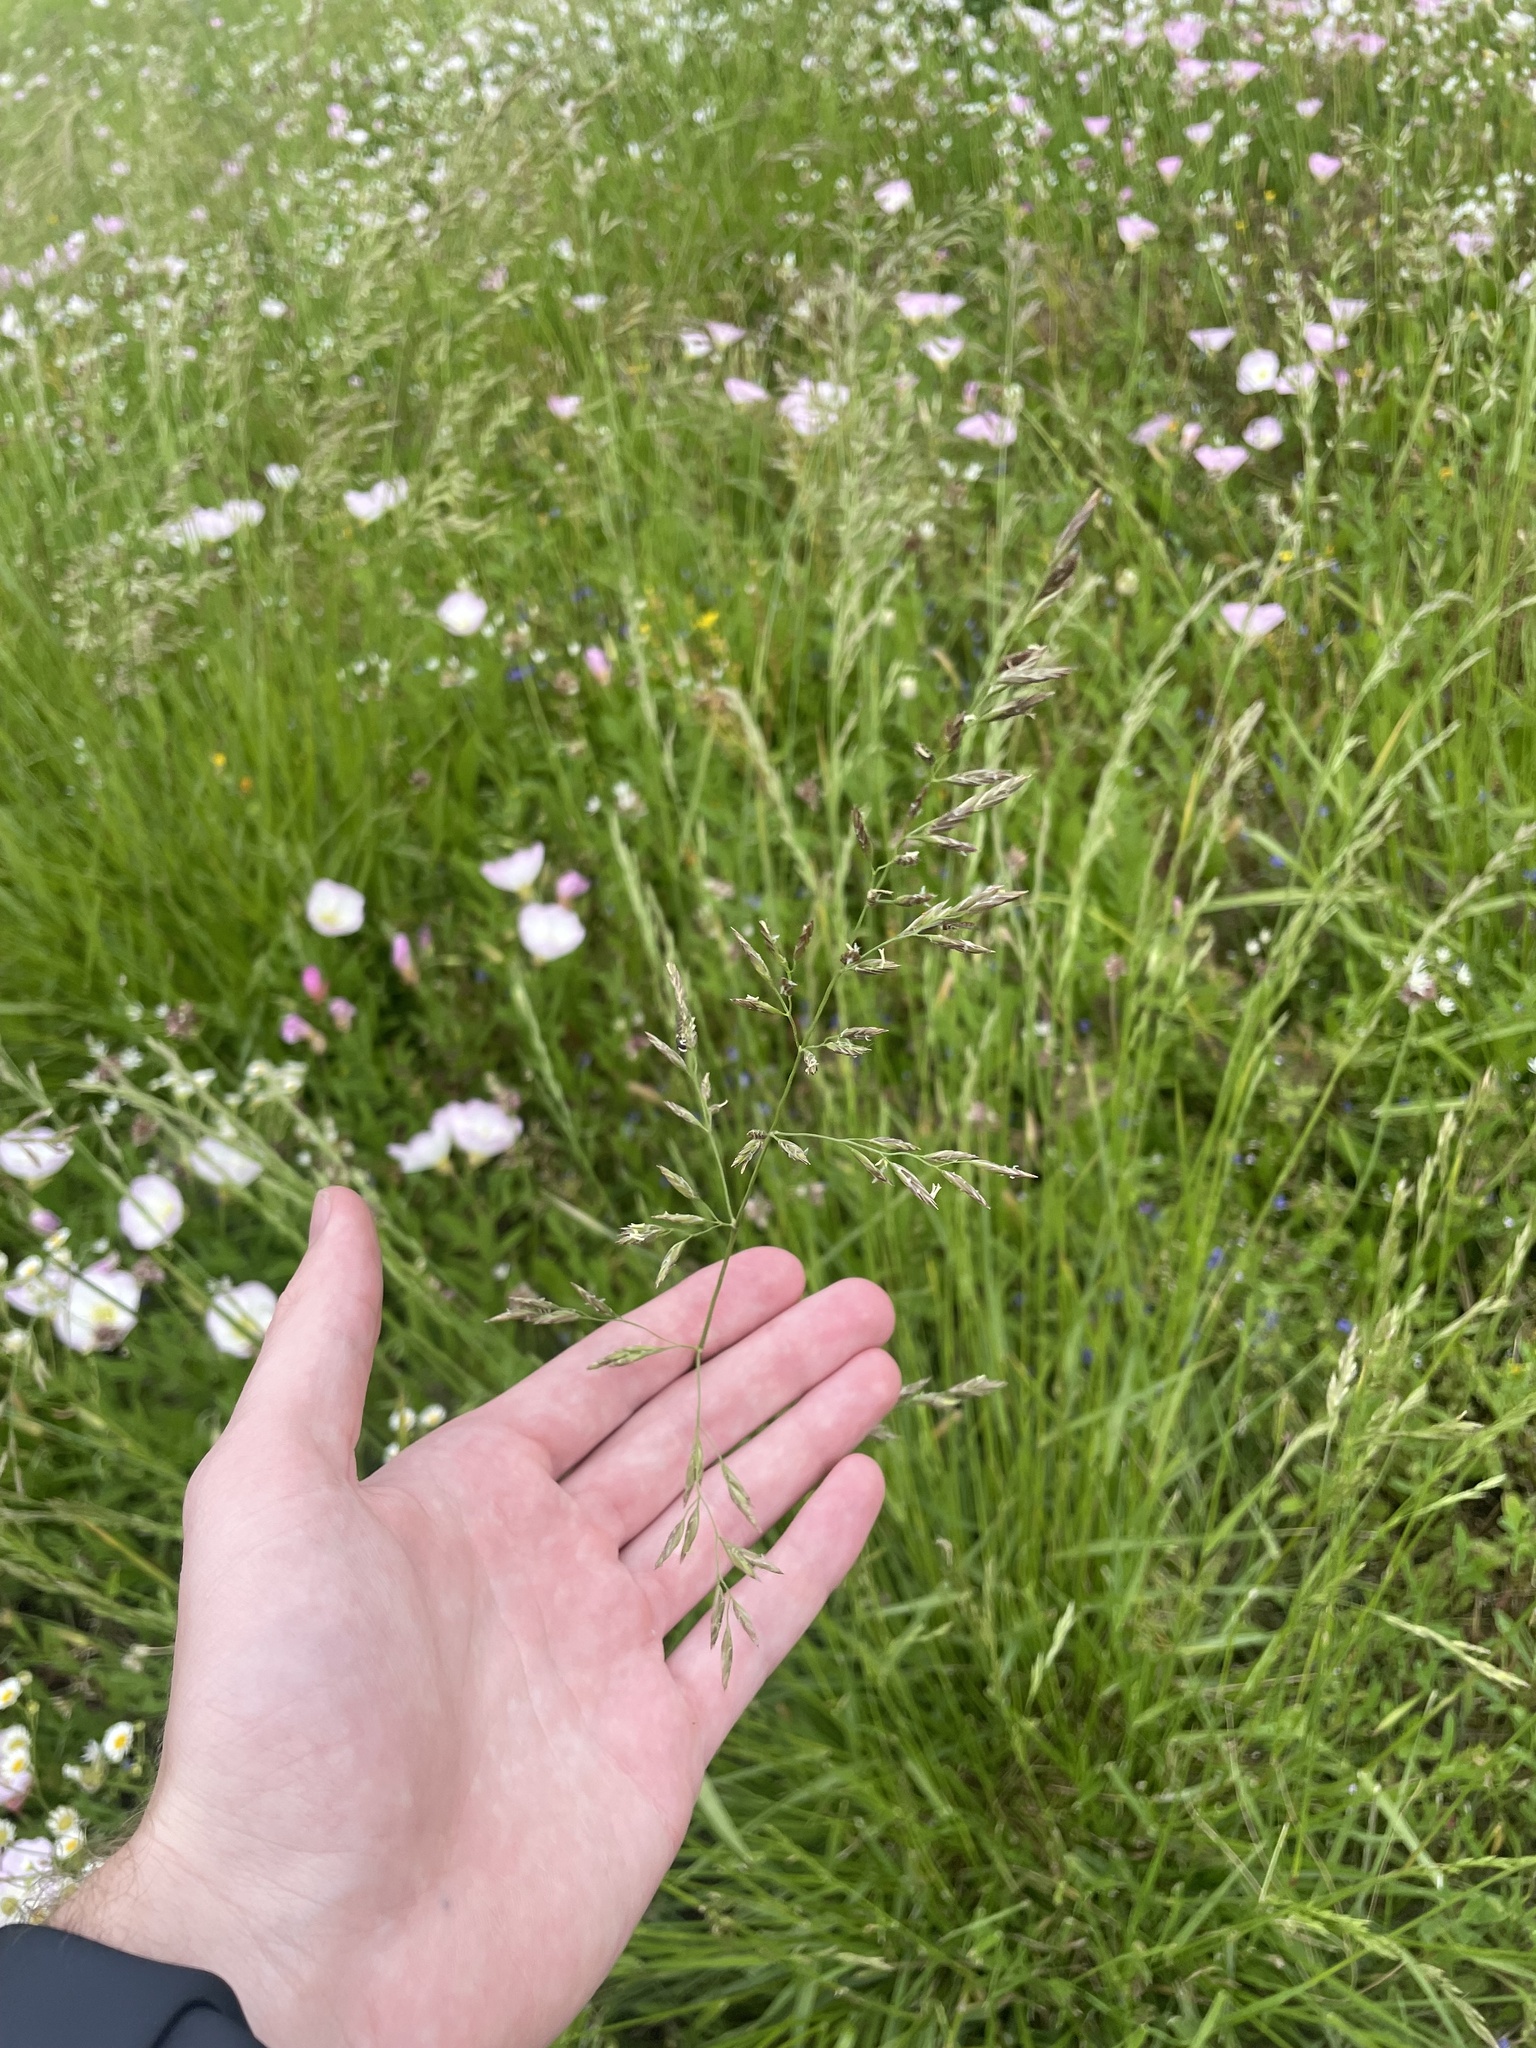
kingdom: Plantae
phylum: Tracheophyta
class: Liliopsida
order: Poales
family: Poaceae
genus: Lolium
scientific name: Lolium arundinaceum
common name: Reed fescue
